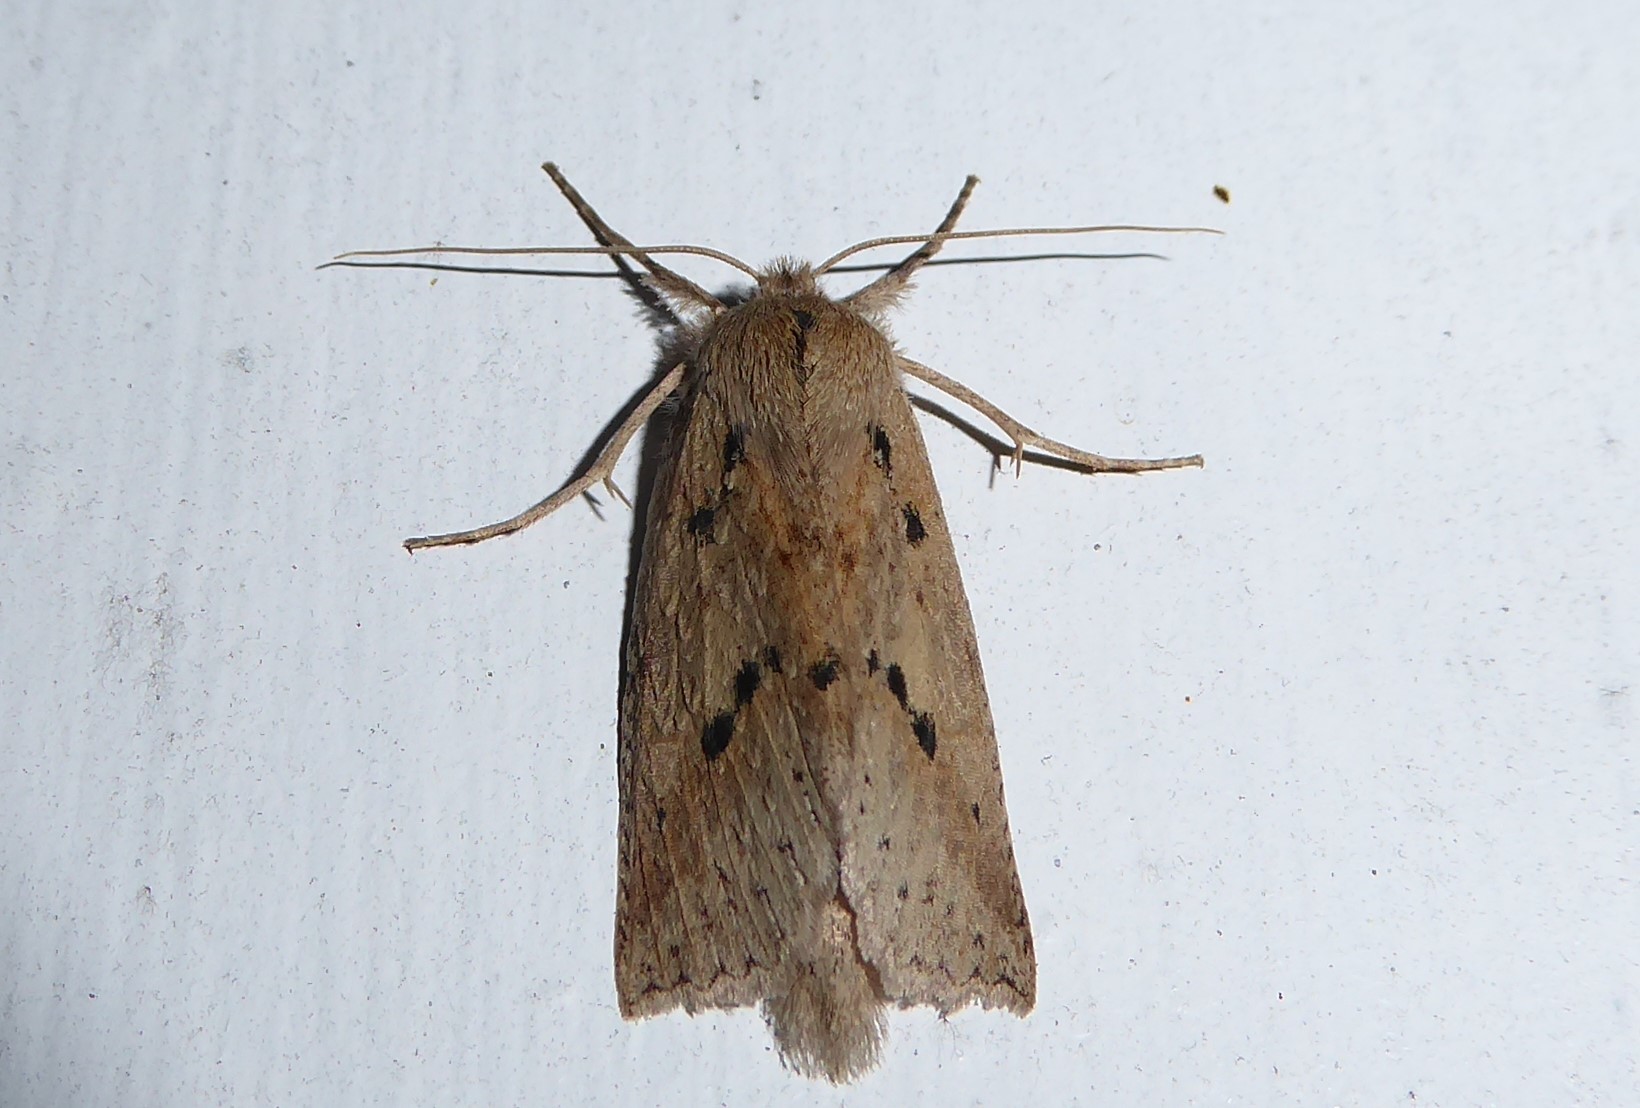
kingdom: Animalia
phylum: Arthropoda
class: Insecta
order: Lepidoptera
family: Geometridae
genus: Declana
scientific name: Declana leptomera
